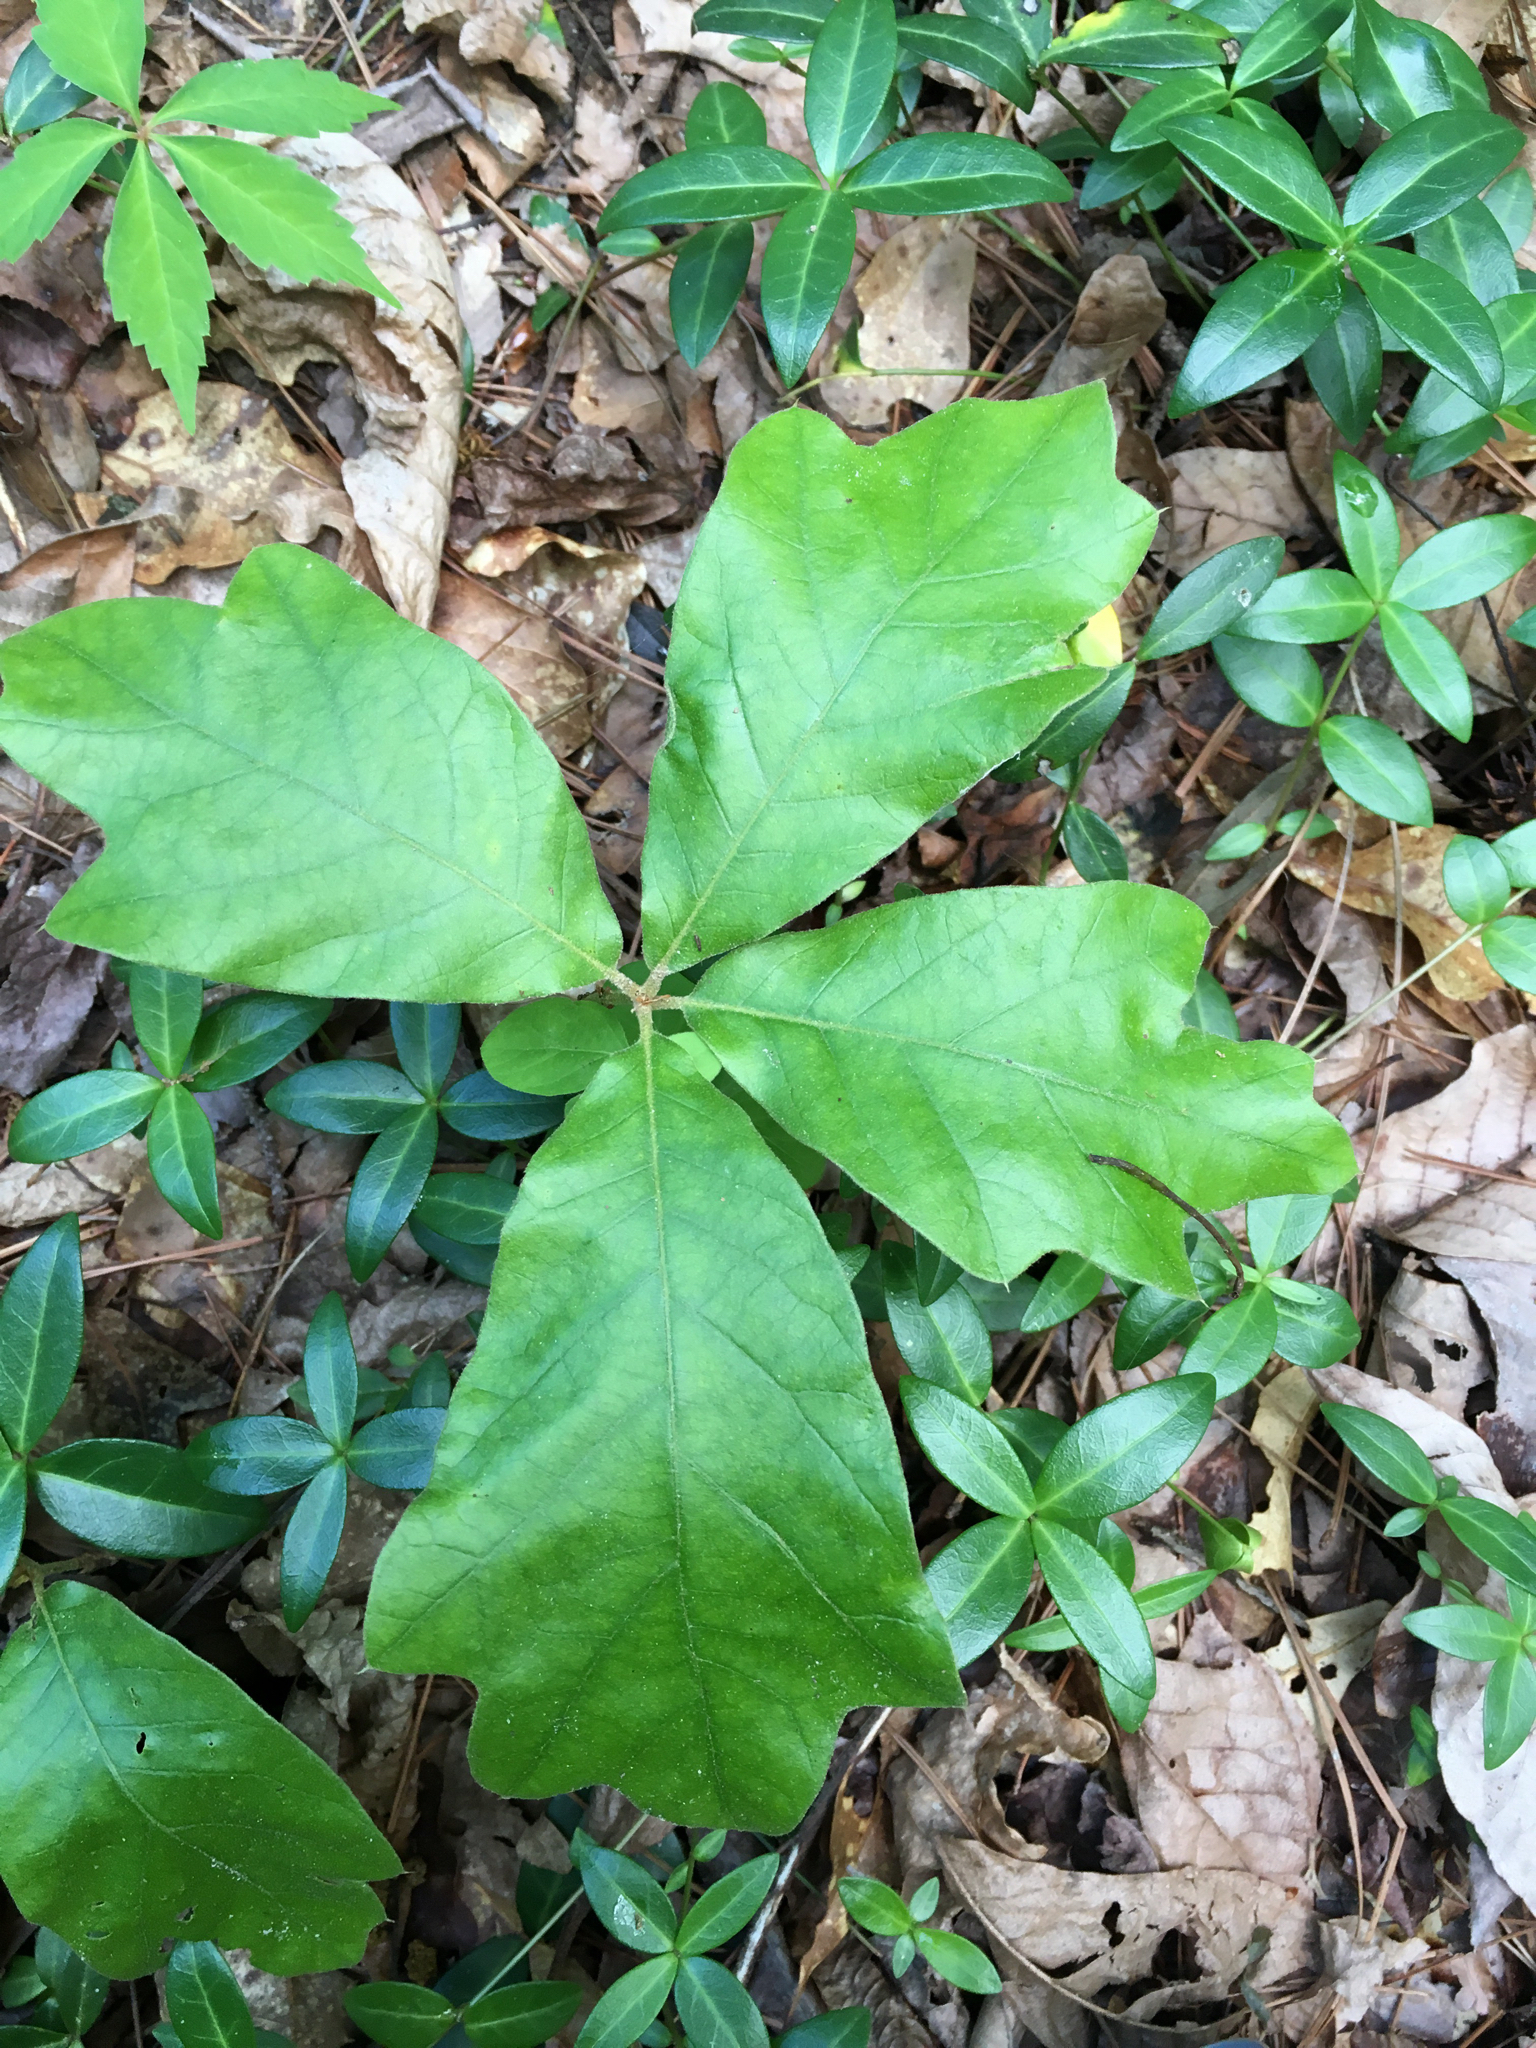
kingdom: Plantae
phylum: Tracheophyta
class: Magnoliopsida
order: Fagales
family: Fagaceae
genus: Quercus
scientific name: Quercus falcata
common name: Southern red oak
